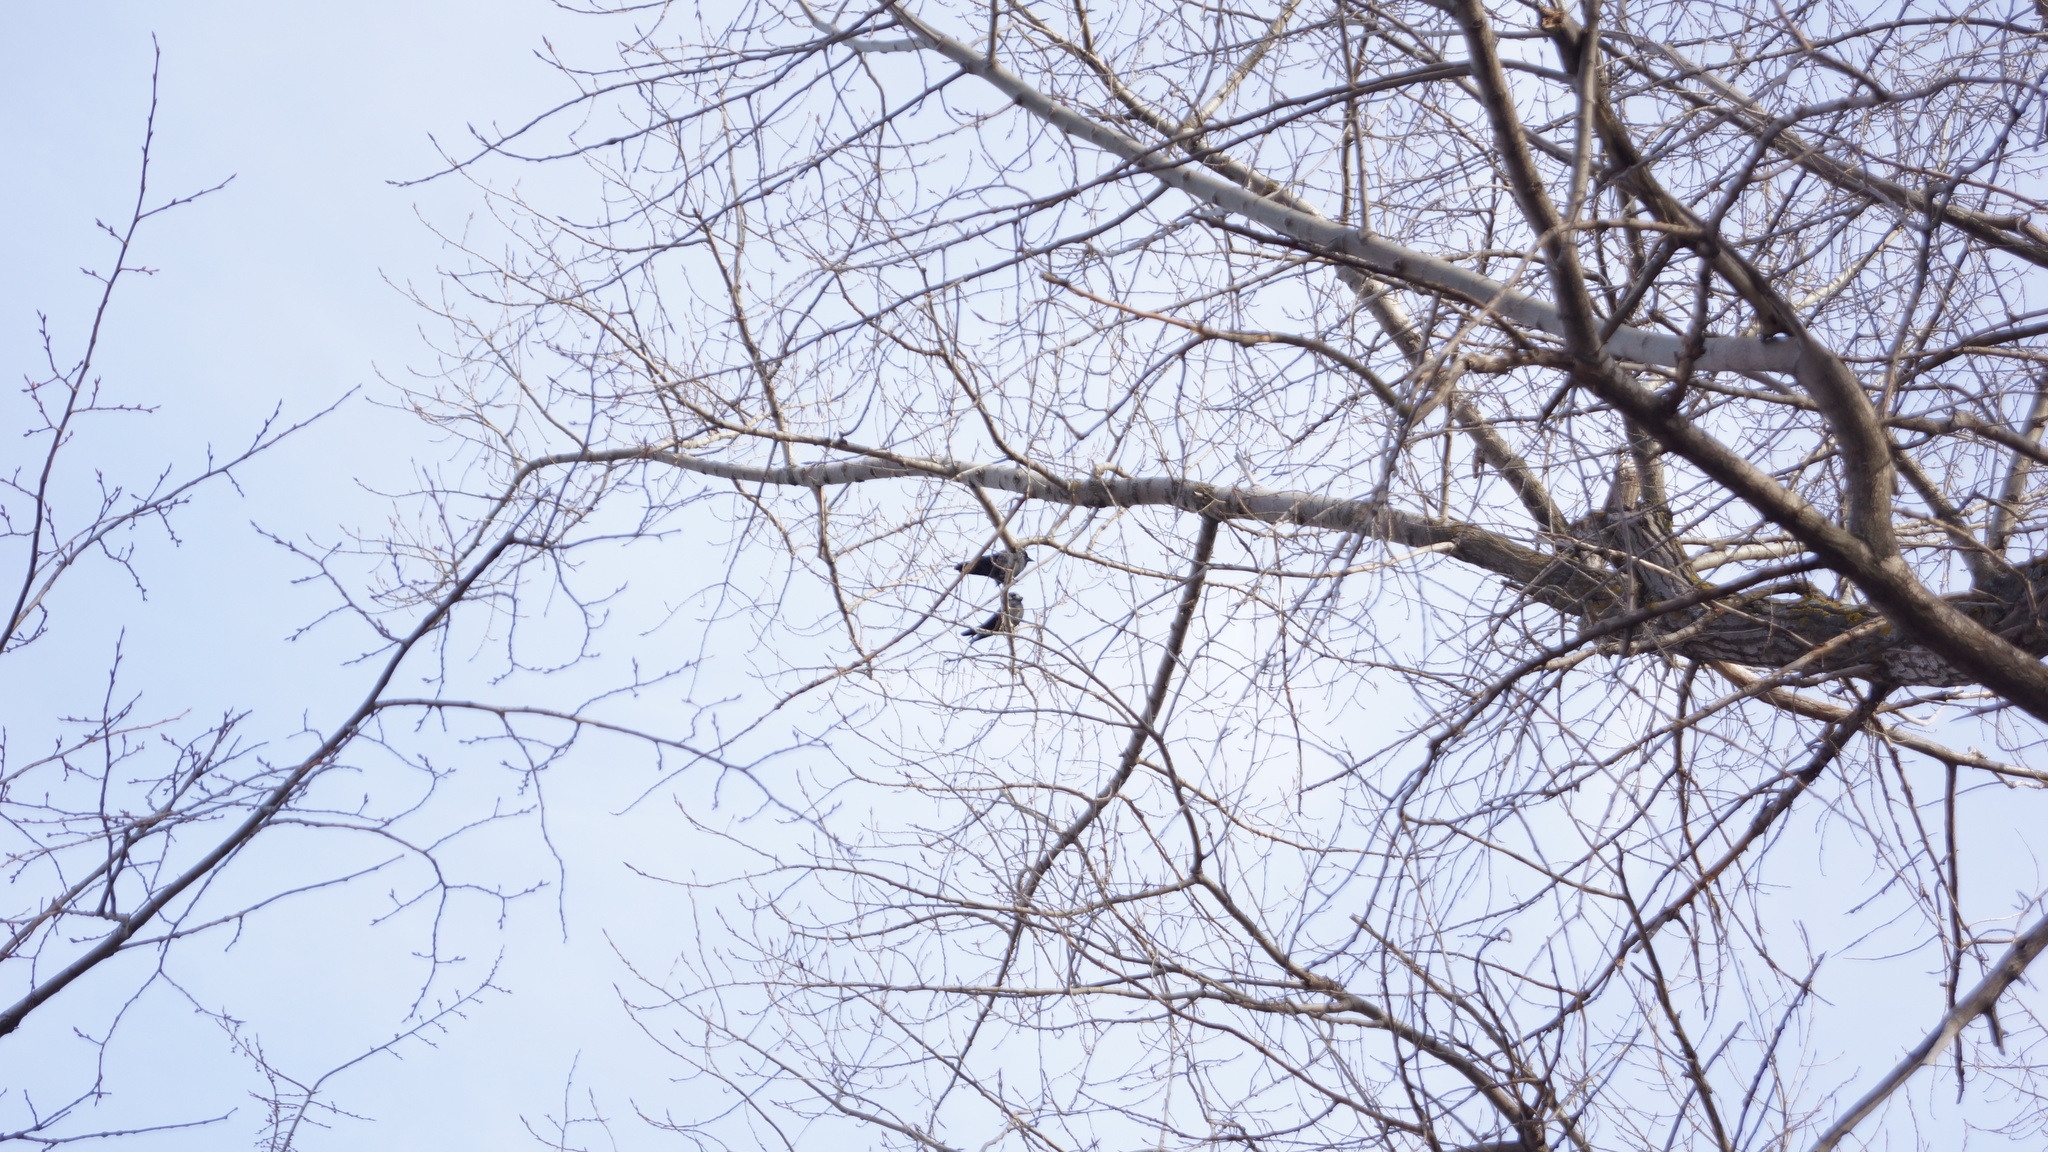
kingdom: Animalia
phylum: Chordata
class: Aves
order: Passeriformes
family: Corvidae
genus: Coloeus
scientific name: Coloeus monedula
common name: Western jackdaw
